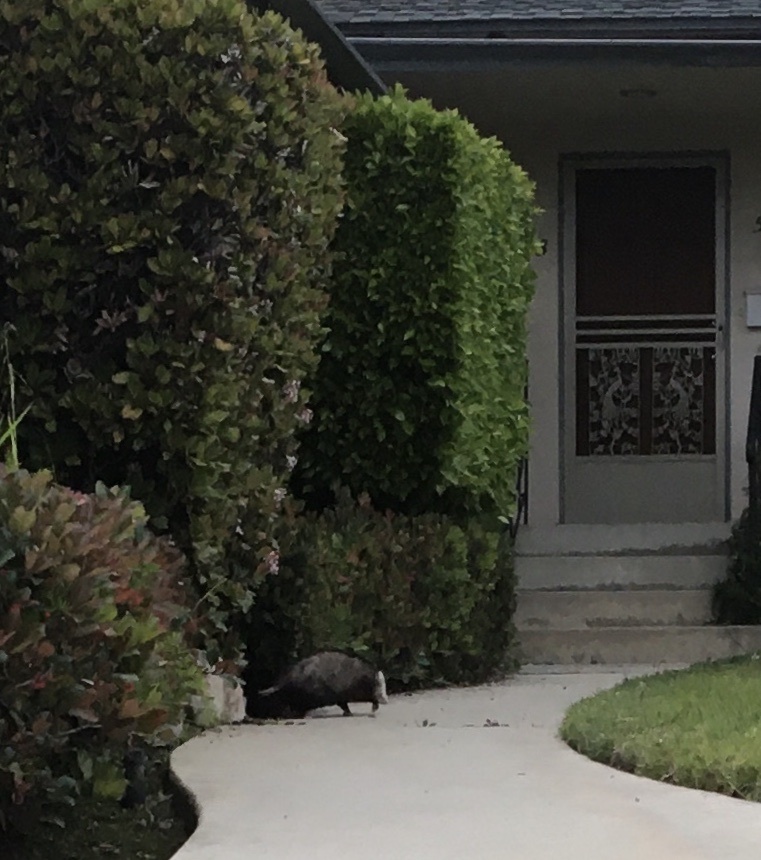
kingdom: Animalia
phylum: Chordata
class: Mammalia
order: Didelphimorphia
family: Didelphidae
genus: Didelphis
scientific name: Didelphis virginiana
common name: Virginia opossum
